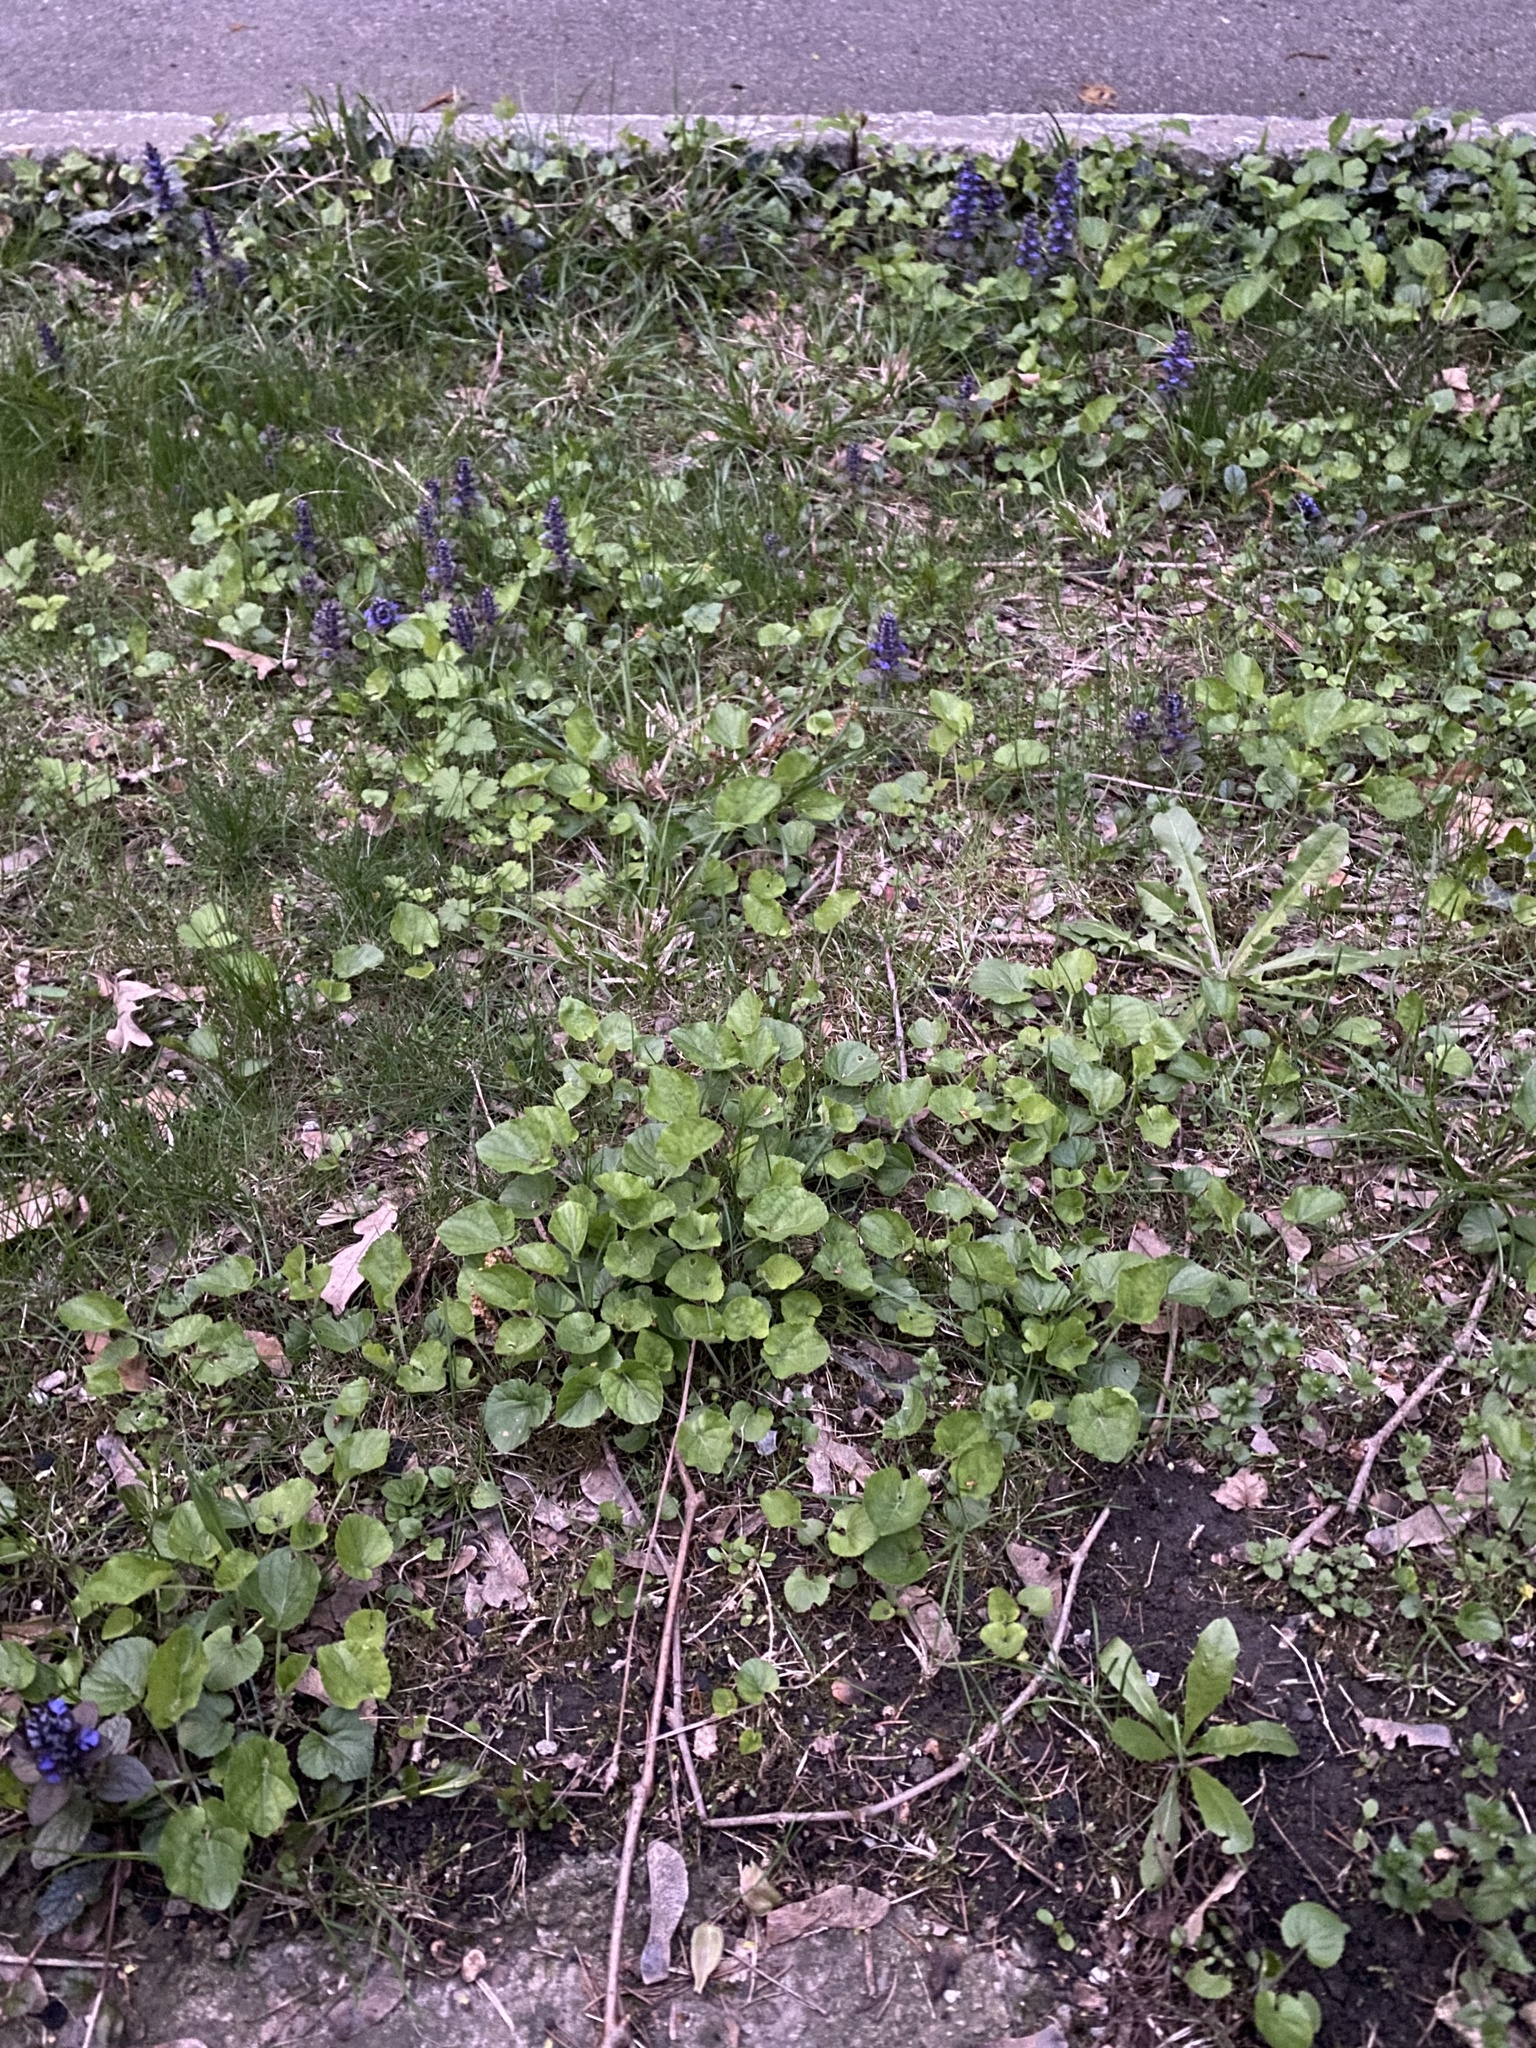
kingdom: Plantae
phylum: Tracheophyta
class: Magnoliopsida
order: Lamiales
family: Lamiaceae
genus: Ajuga
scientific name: Ajuga reptans
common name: Bugle
